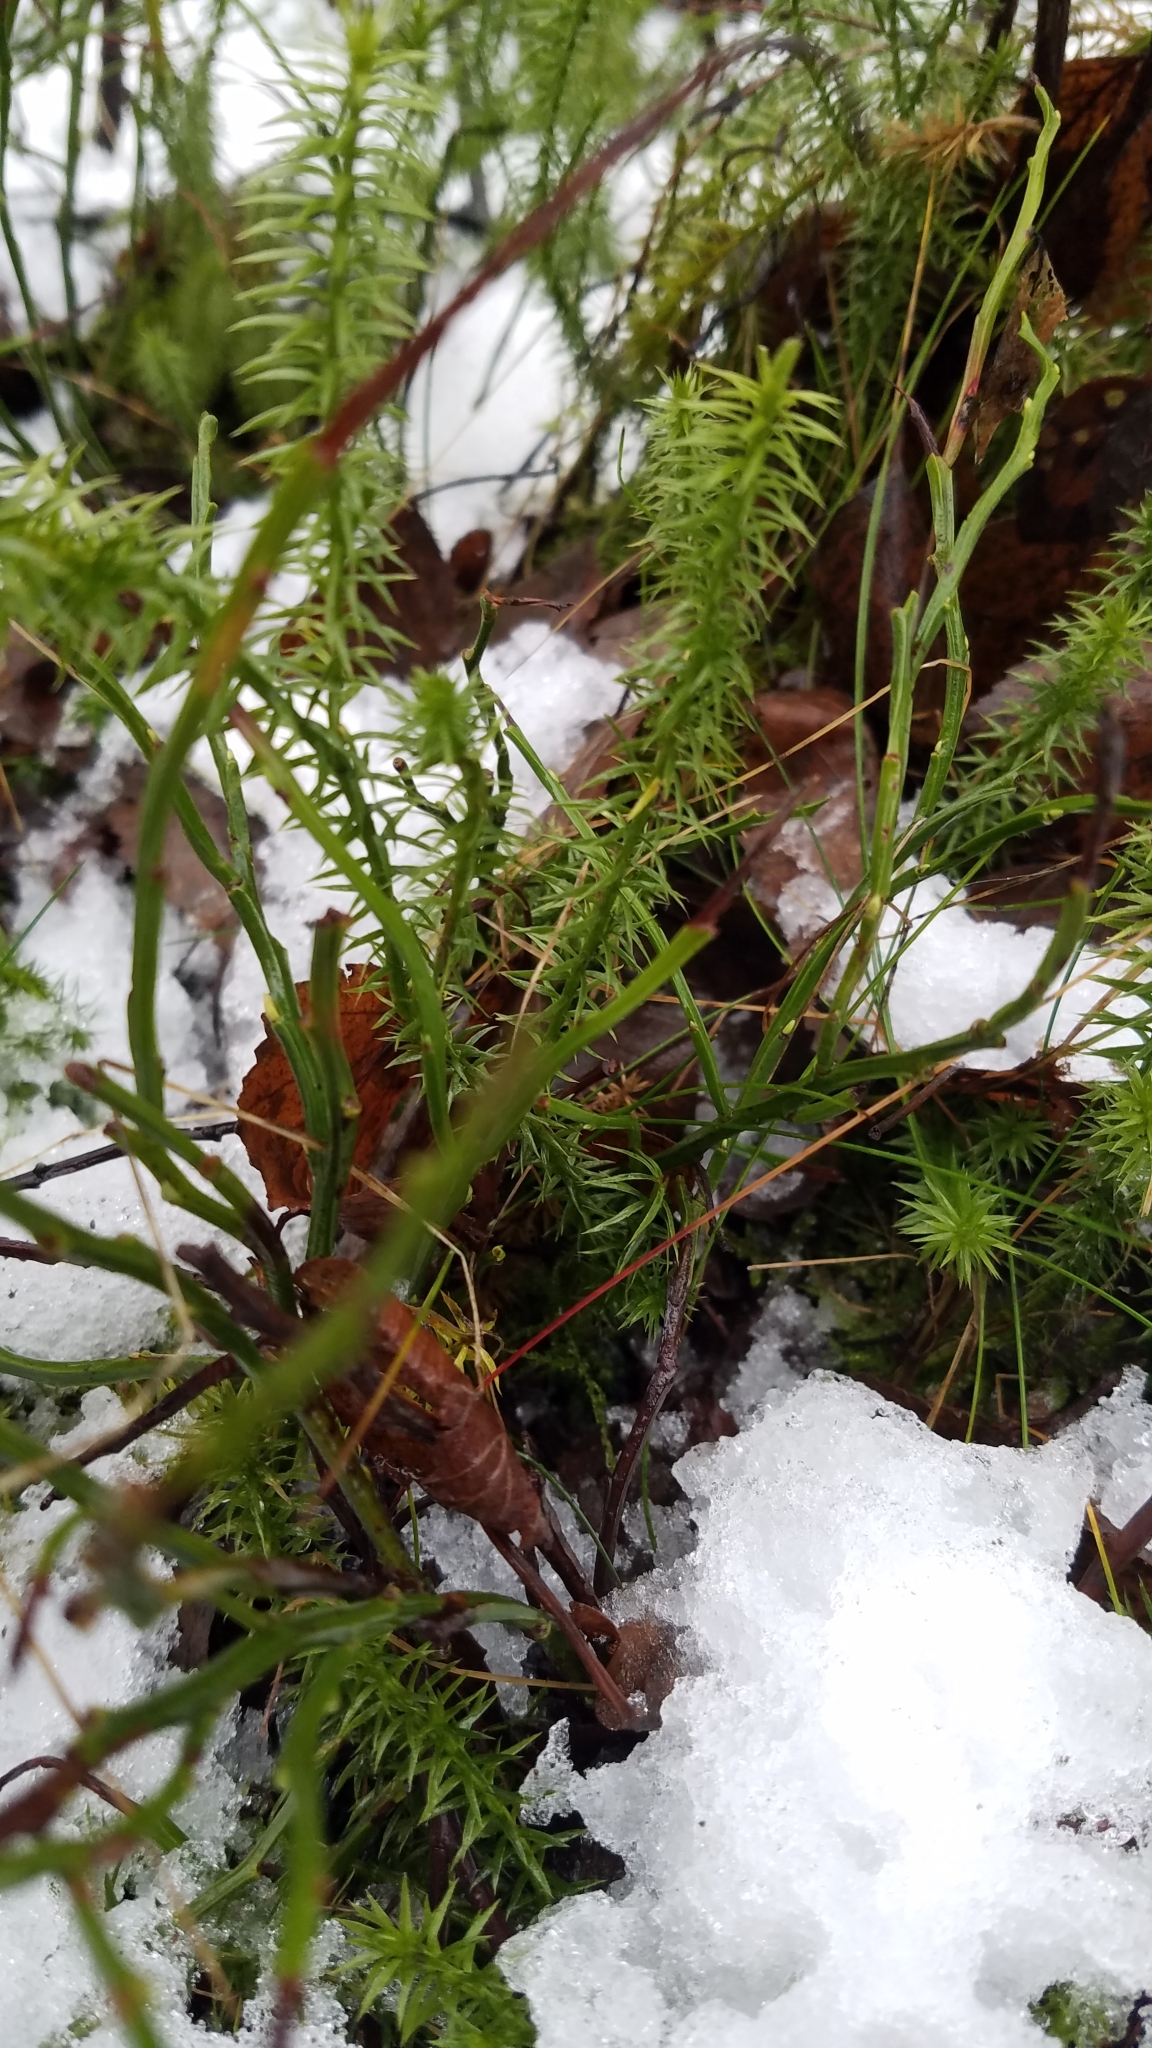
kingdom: Plantae
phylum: Tracheophyta
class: Lycopodiopsida
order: Lycopodiales
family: Lycopodiaceae
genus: Spinulum
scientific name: Spinulum annotinum
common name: Interrupted club-moss
